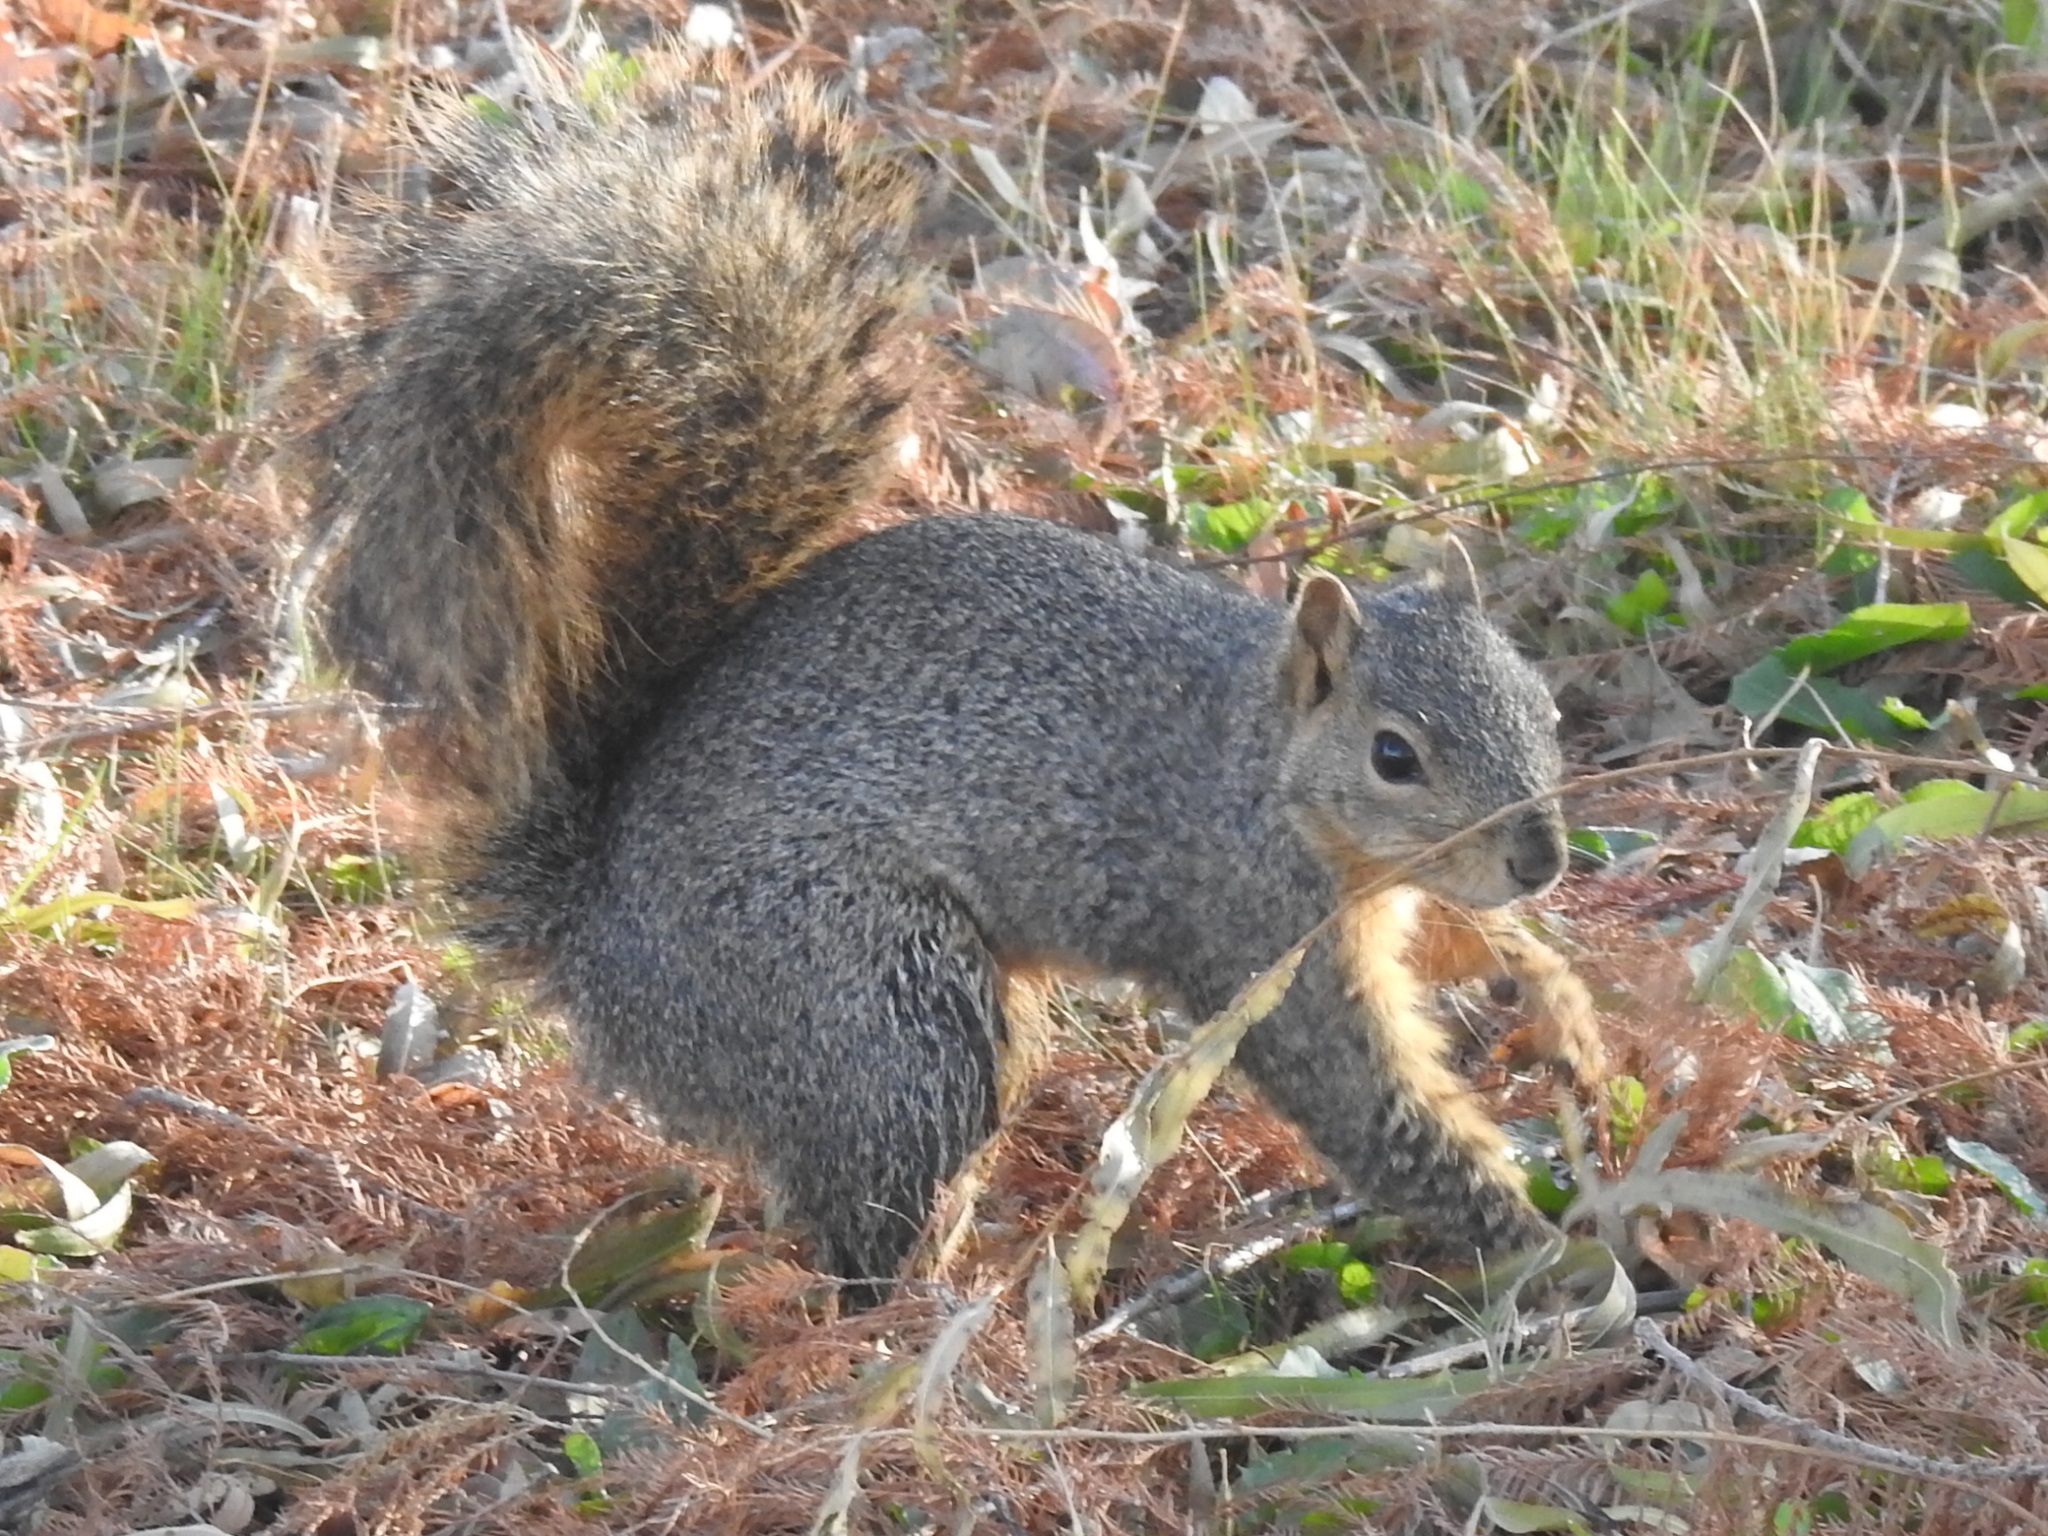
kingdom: Animalia
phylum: Chordata
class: Mammalia
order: Rodentia
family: Sciuridae
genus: Sciurus
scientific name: Sciurus niger
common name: Fox squirrel
